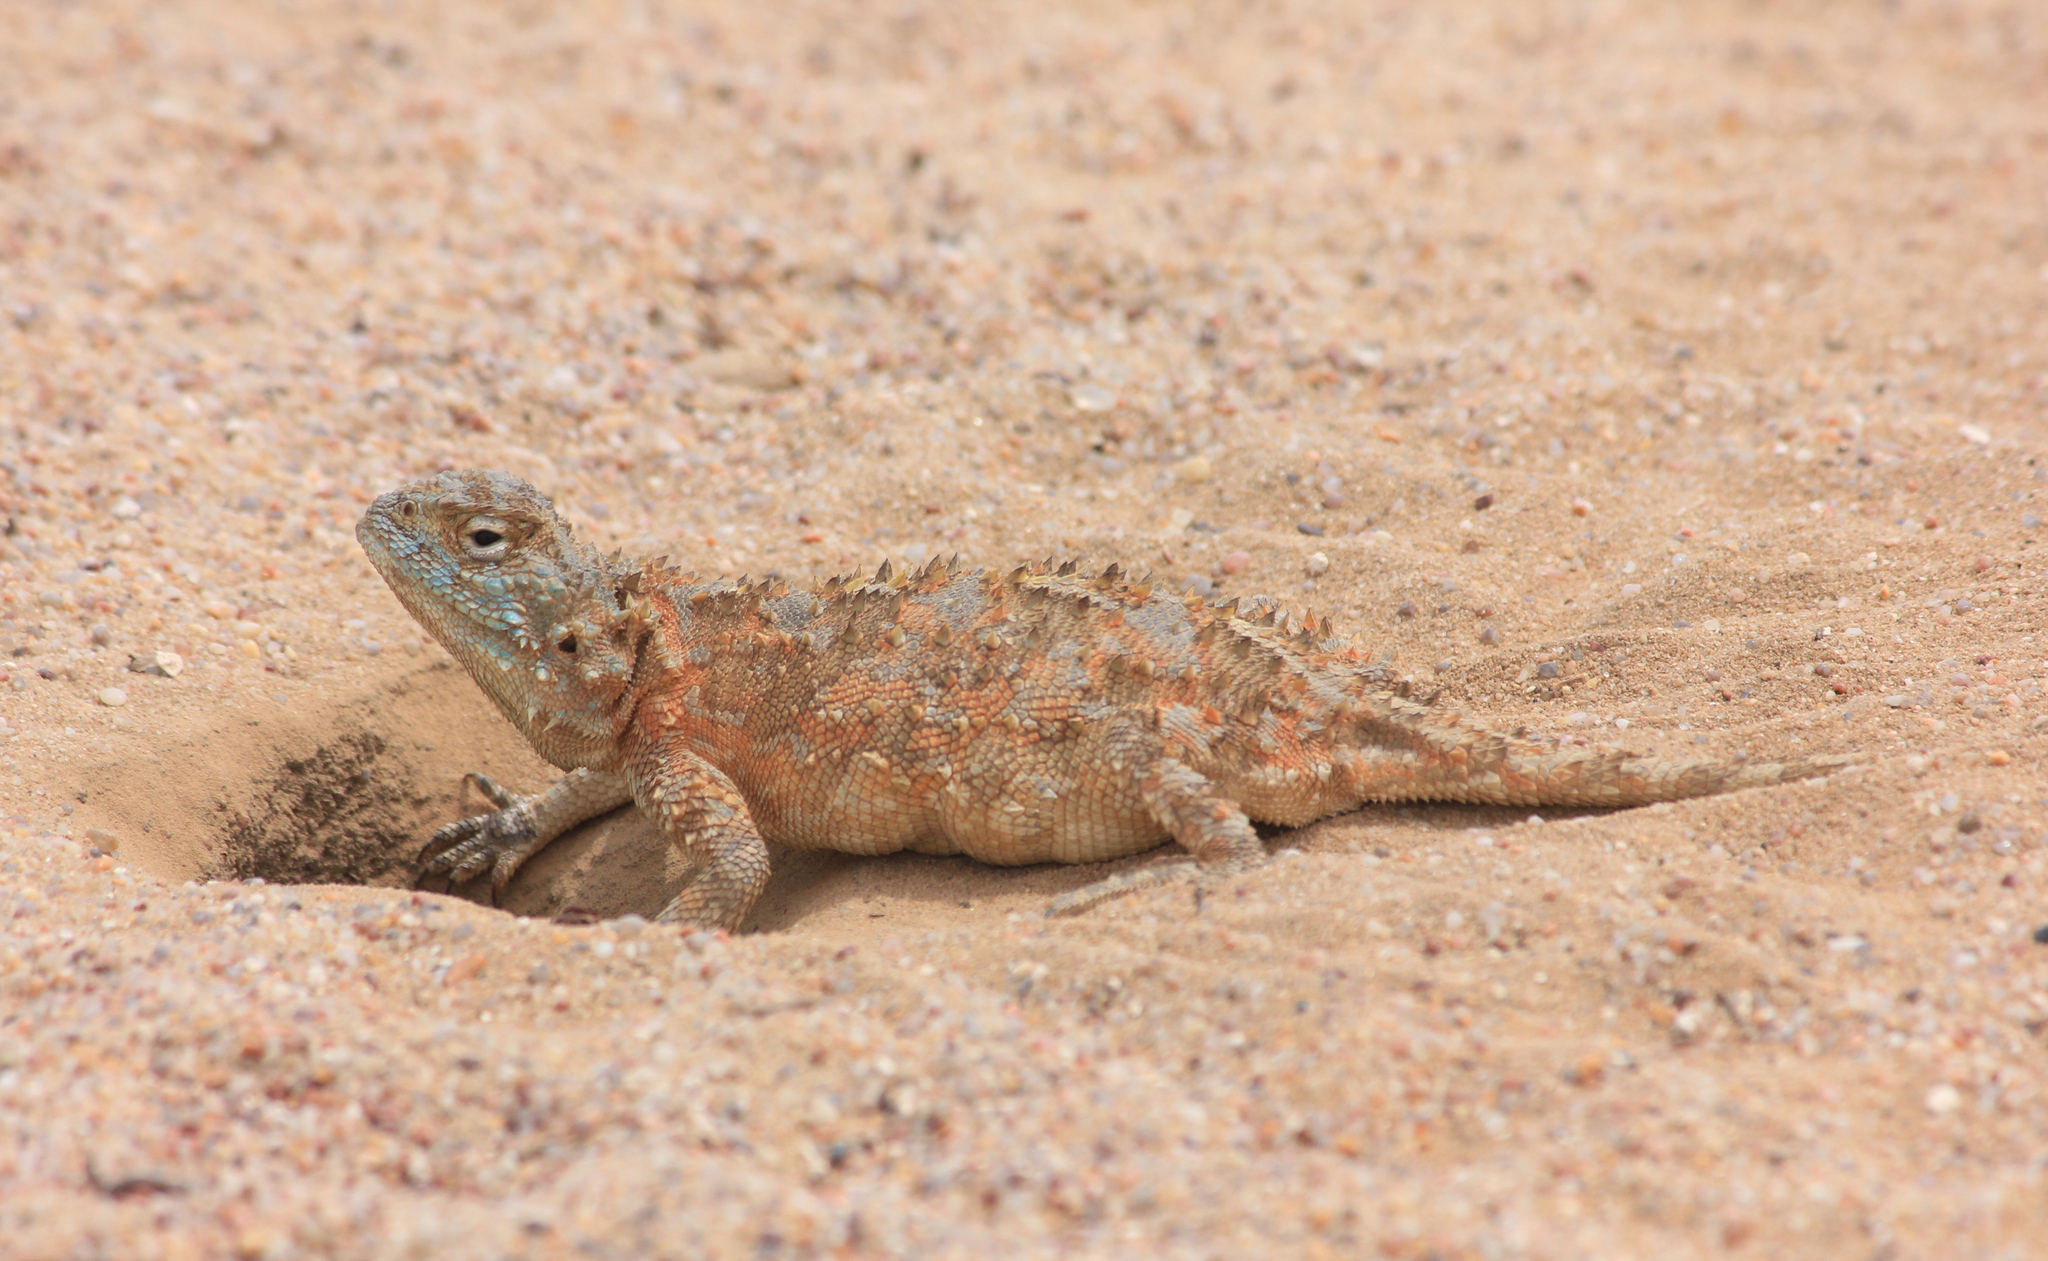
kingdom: Animalia
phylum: Chordata
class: Squamata
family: Agamidae
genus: Agama
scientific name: Agama hispida
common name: Common spiny agama
